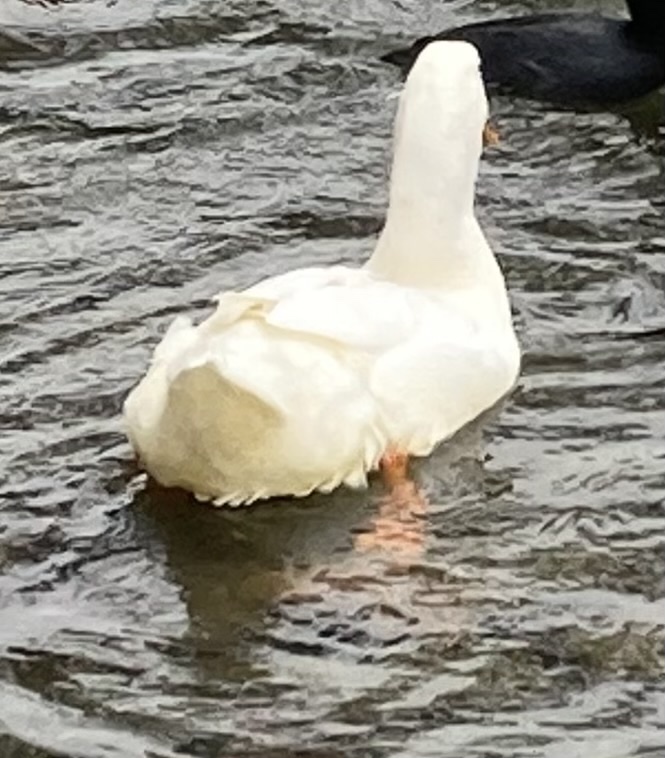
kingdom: Animalia
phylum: Chordata
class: Aves
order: Anseriformes
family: Anatidae
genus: Anas
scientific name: Anas platyrhynchos
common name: Mallard
